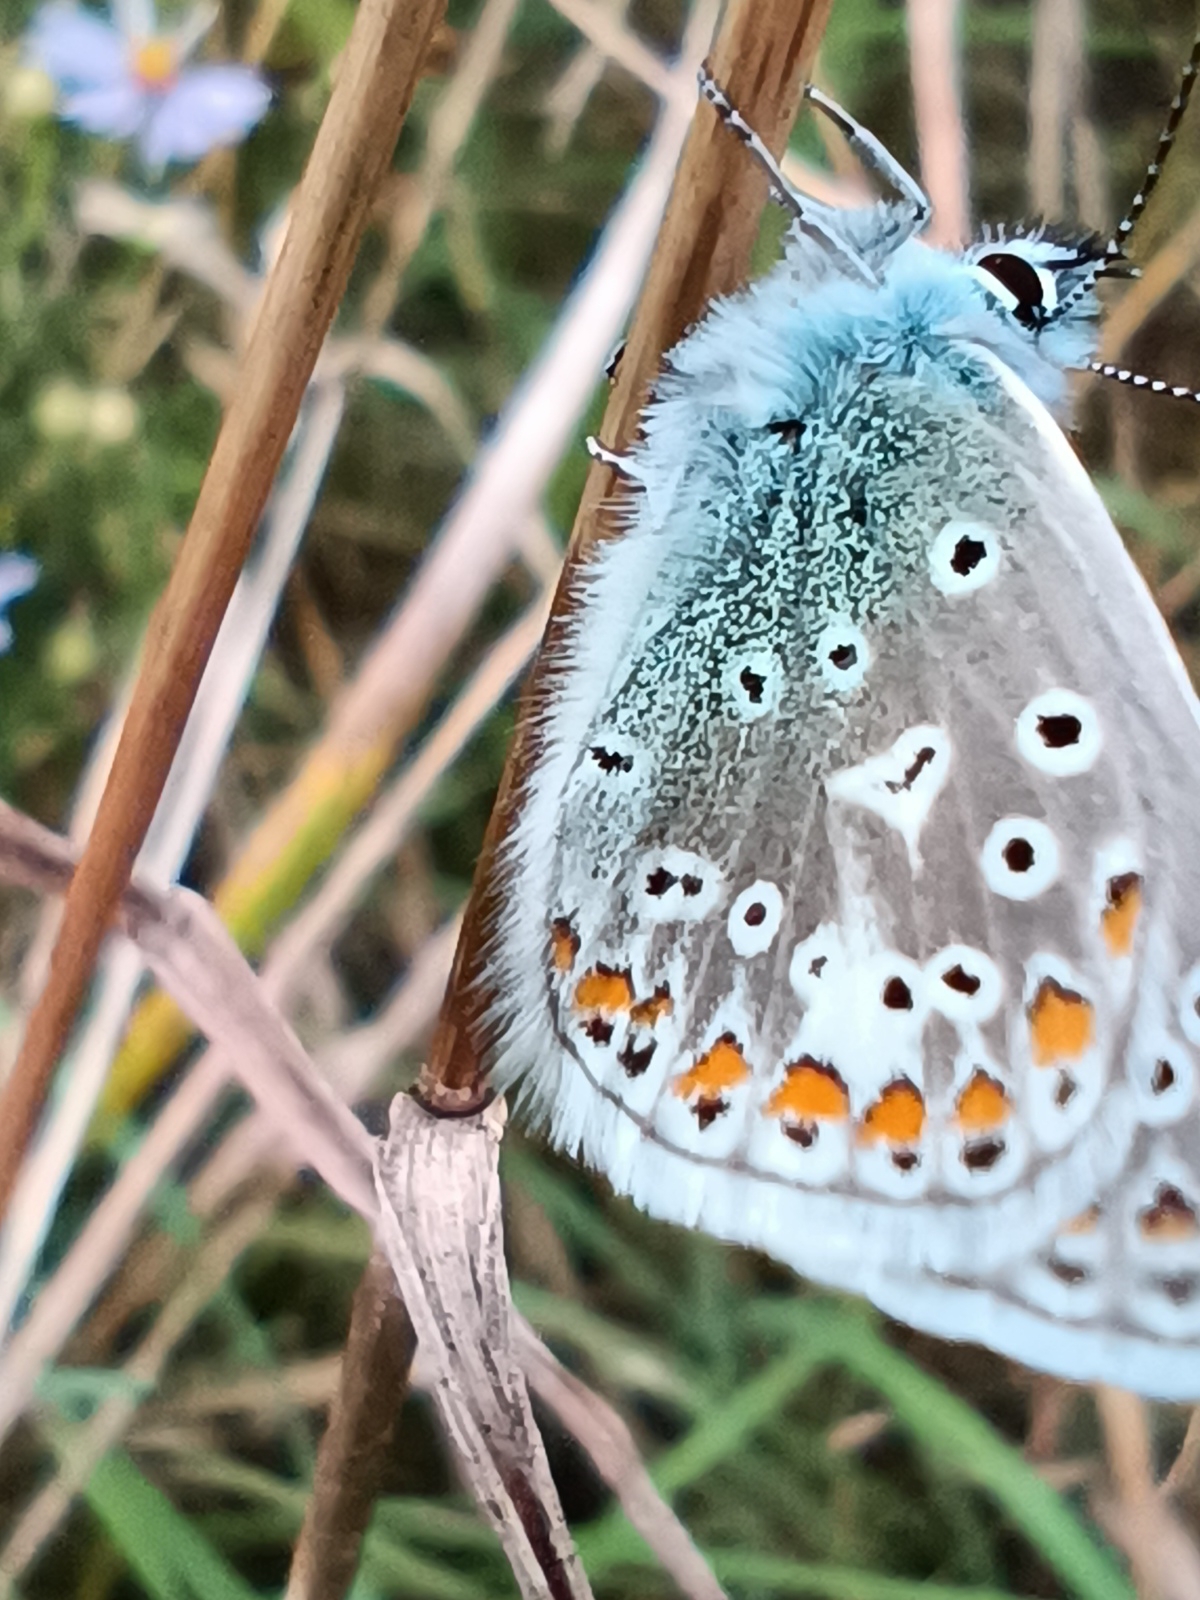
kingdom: Animalia
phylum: Arthropoda
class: Insecta
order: Lepidoptera
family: Lycaenidae
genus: Polyommatus
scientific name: Polyommatus icarus
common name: Common blue
